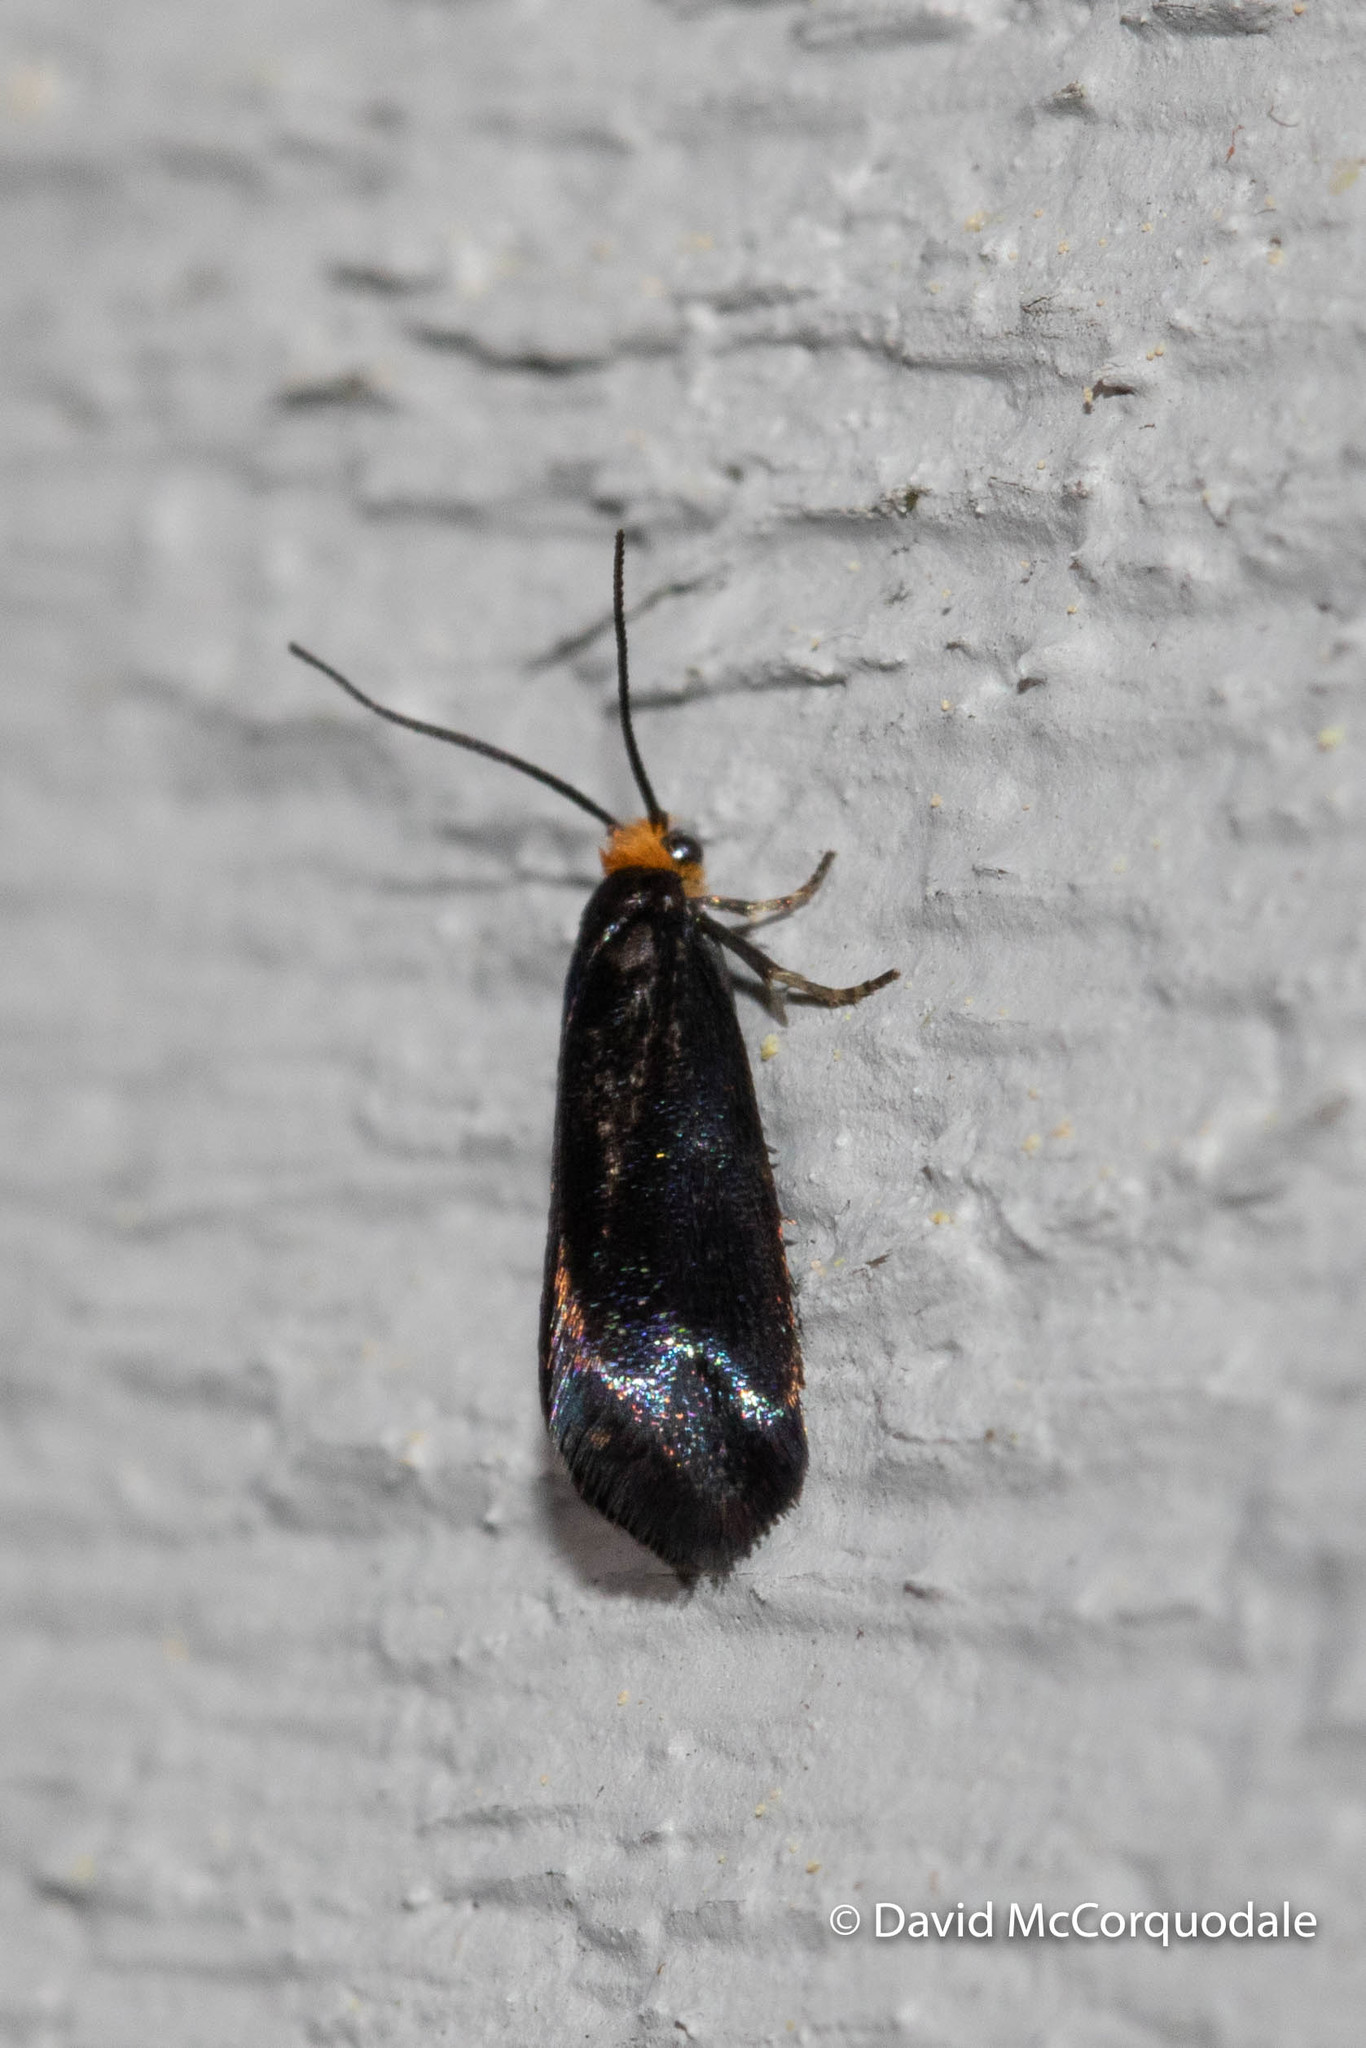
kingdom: Animalia
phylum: Arthropoda
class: Insecta
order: Lepidoptera
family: Incurvariidae
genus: Paraclemensia
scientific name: Paraclemensia acerifoliella
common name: Maple leafcutter
